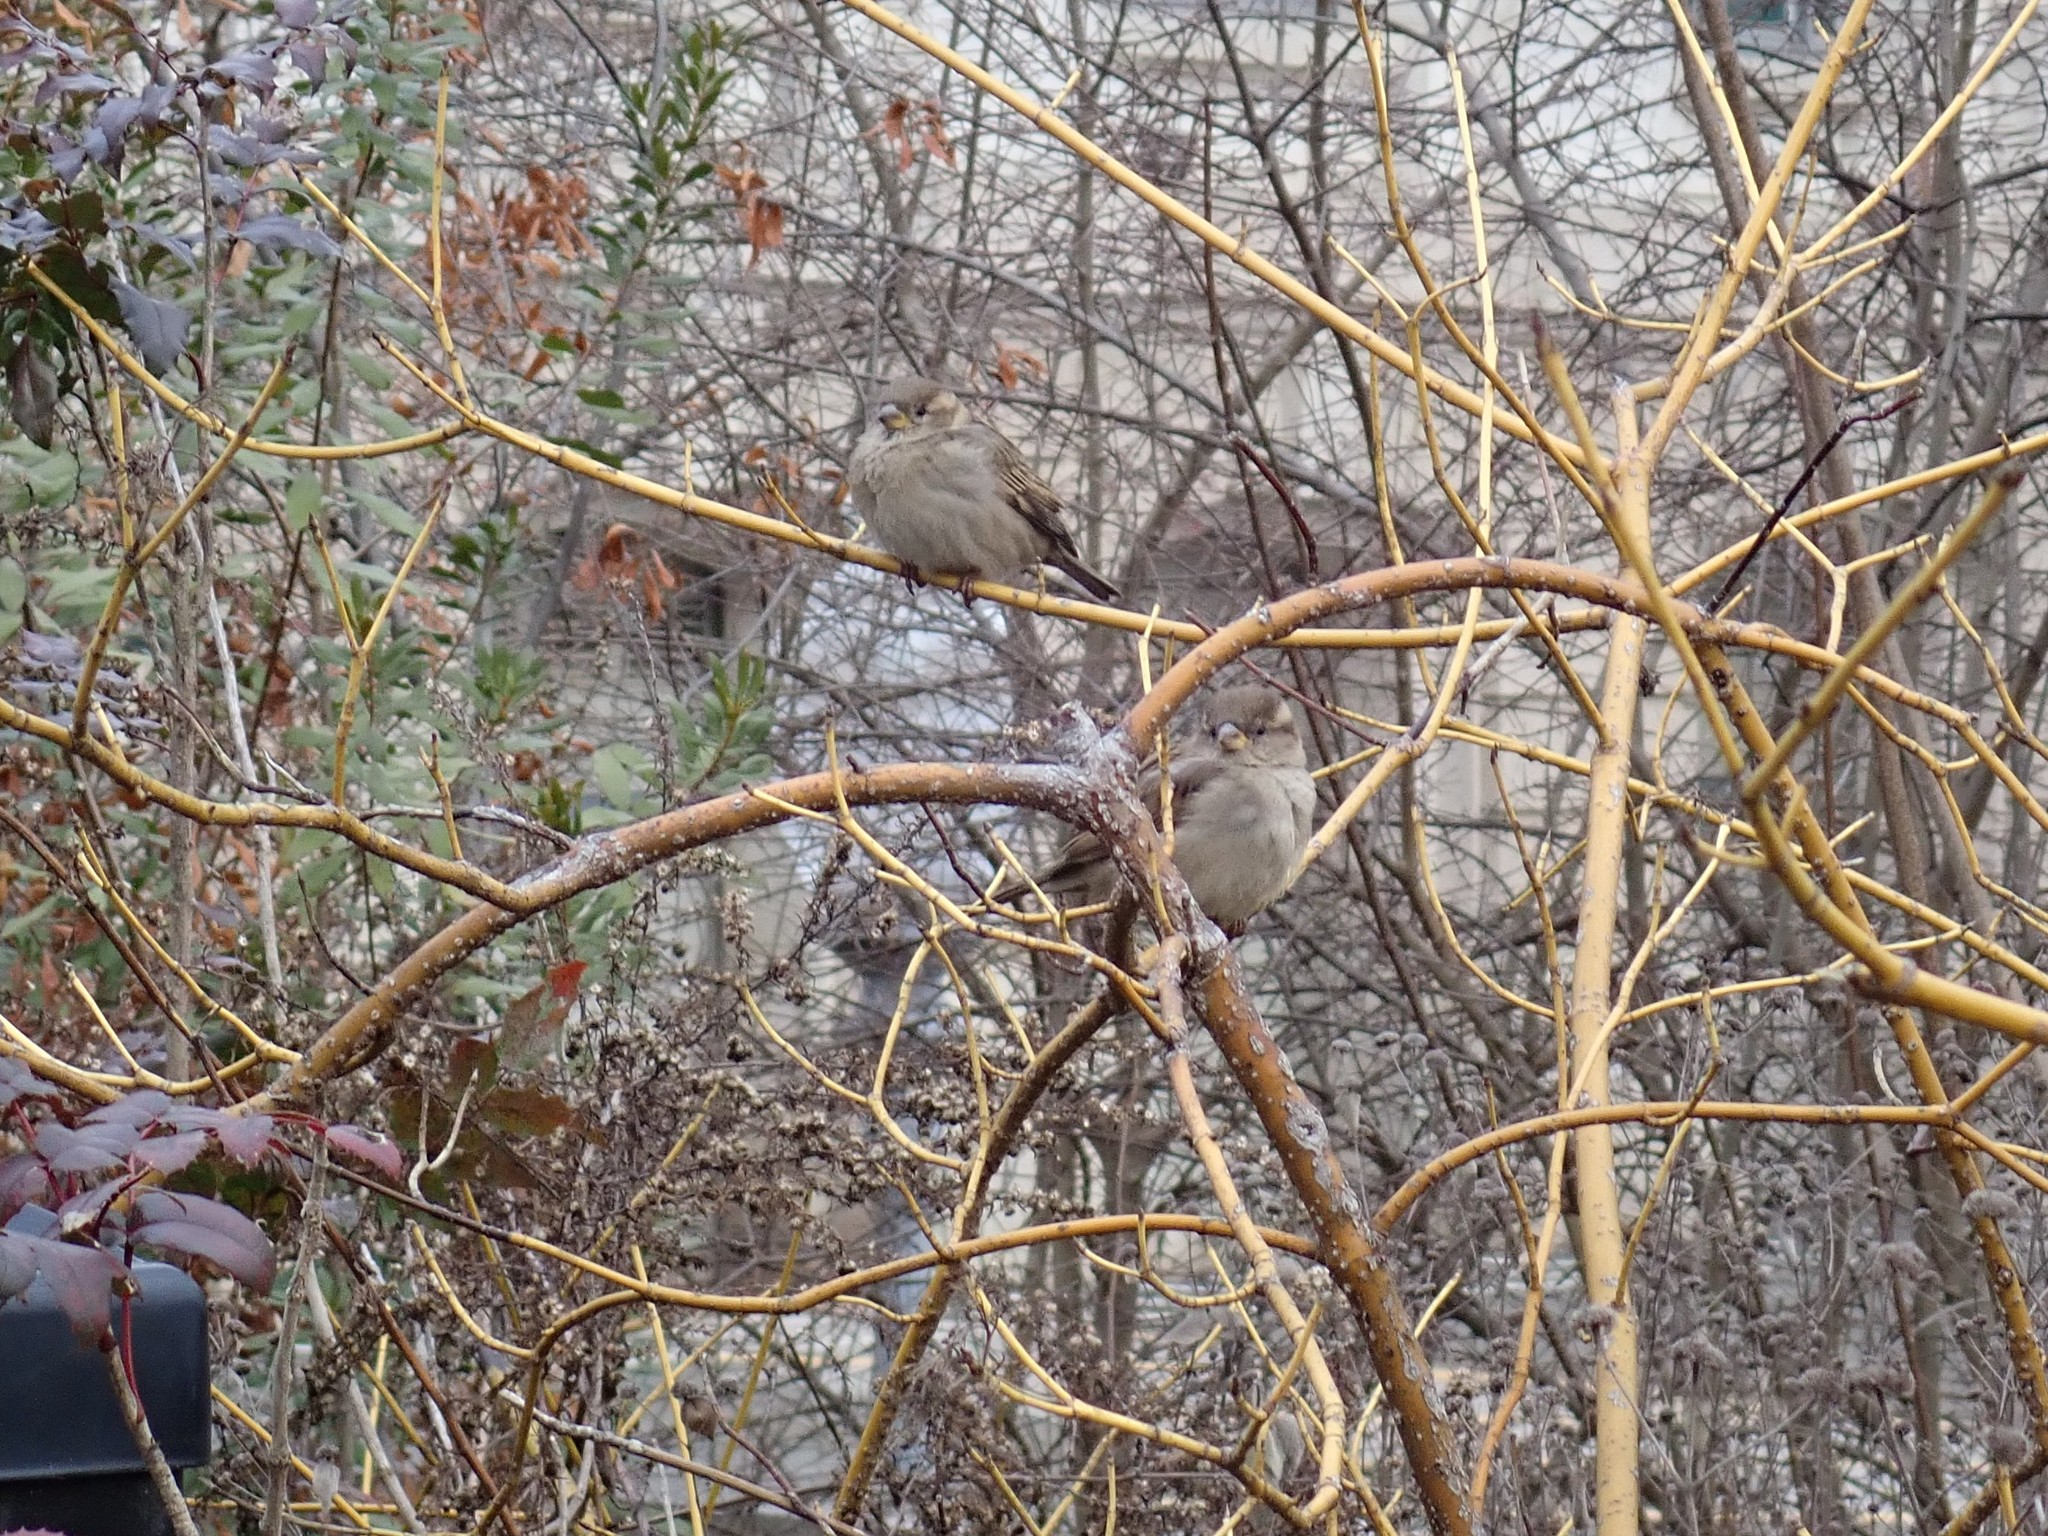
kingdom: Animalia
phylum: Chordata
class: Aves
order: Passeriformes
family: Passeridae
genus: Passer
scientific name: Passer domesticus
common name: House sparrow
